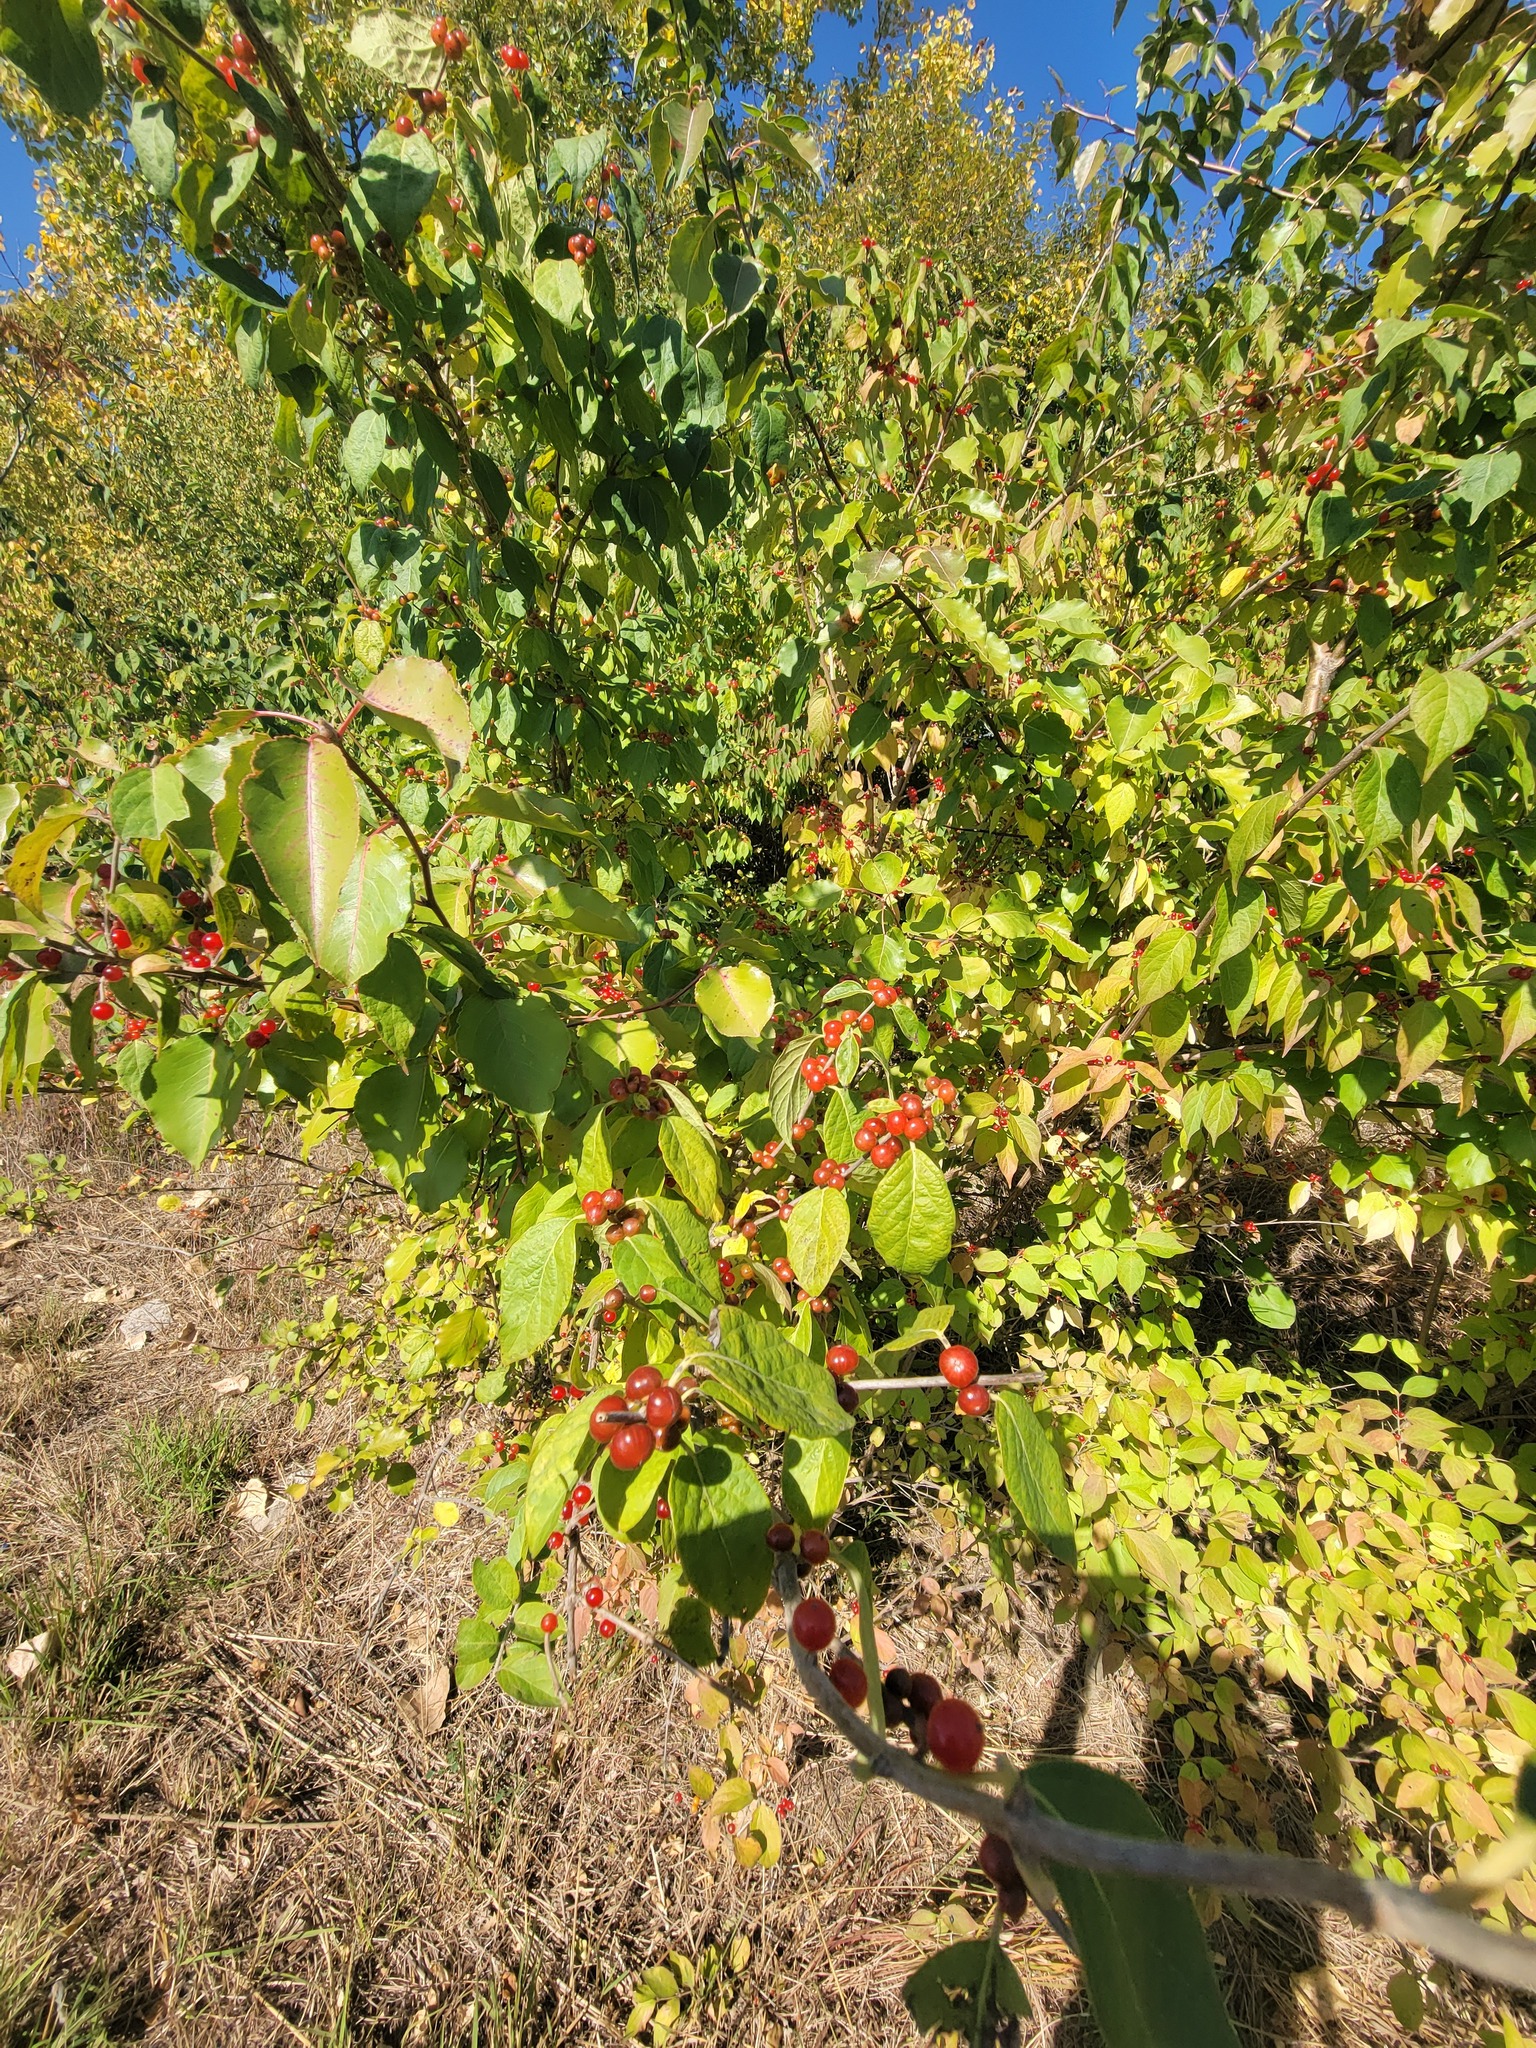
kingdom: Plantae
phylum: Tracheophyta
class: Magnoliopsida
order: Dipsacales
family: Caprifoliaceae
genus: Lonicera
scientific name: Lonicera maackii
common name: Amur honeysuckle
